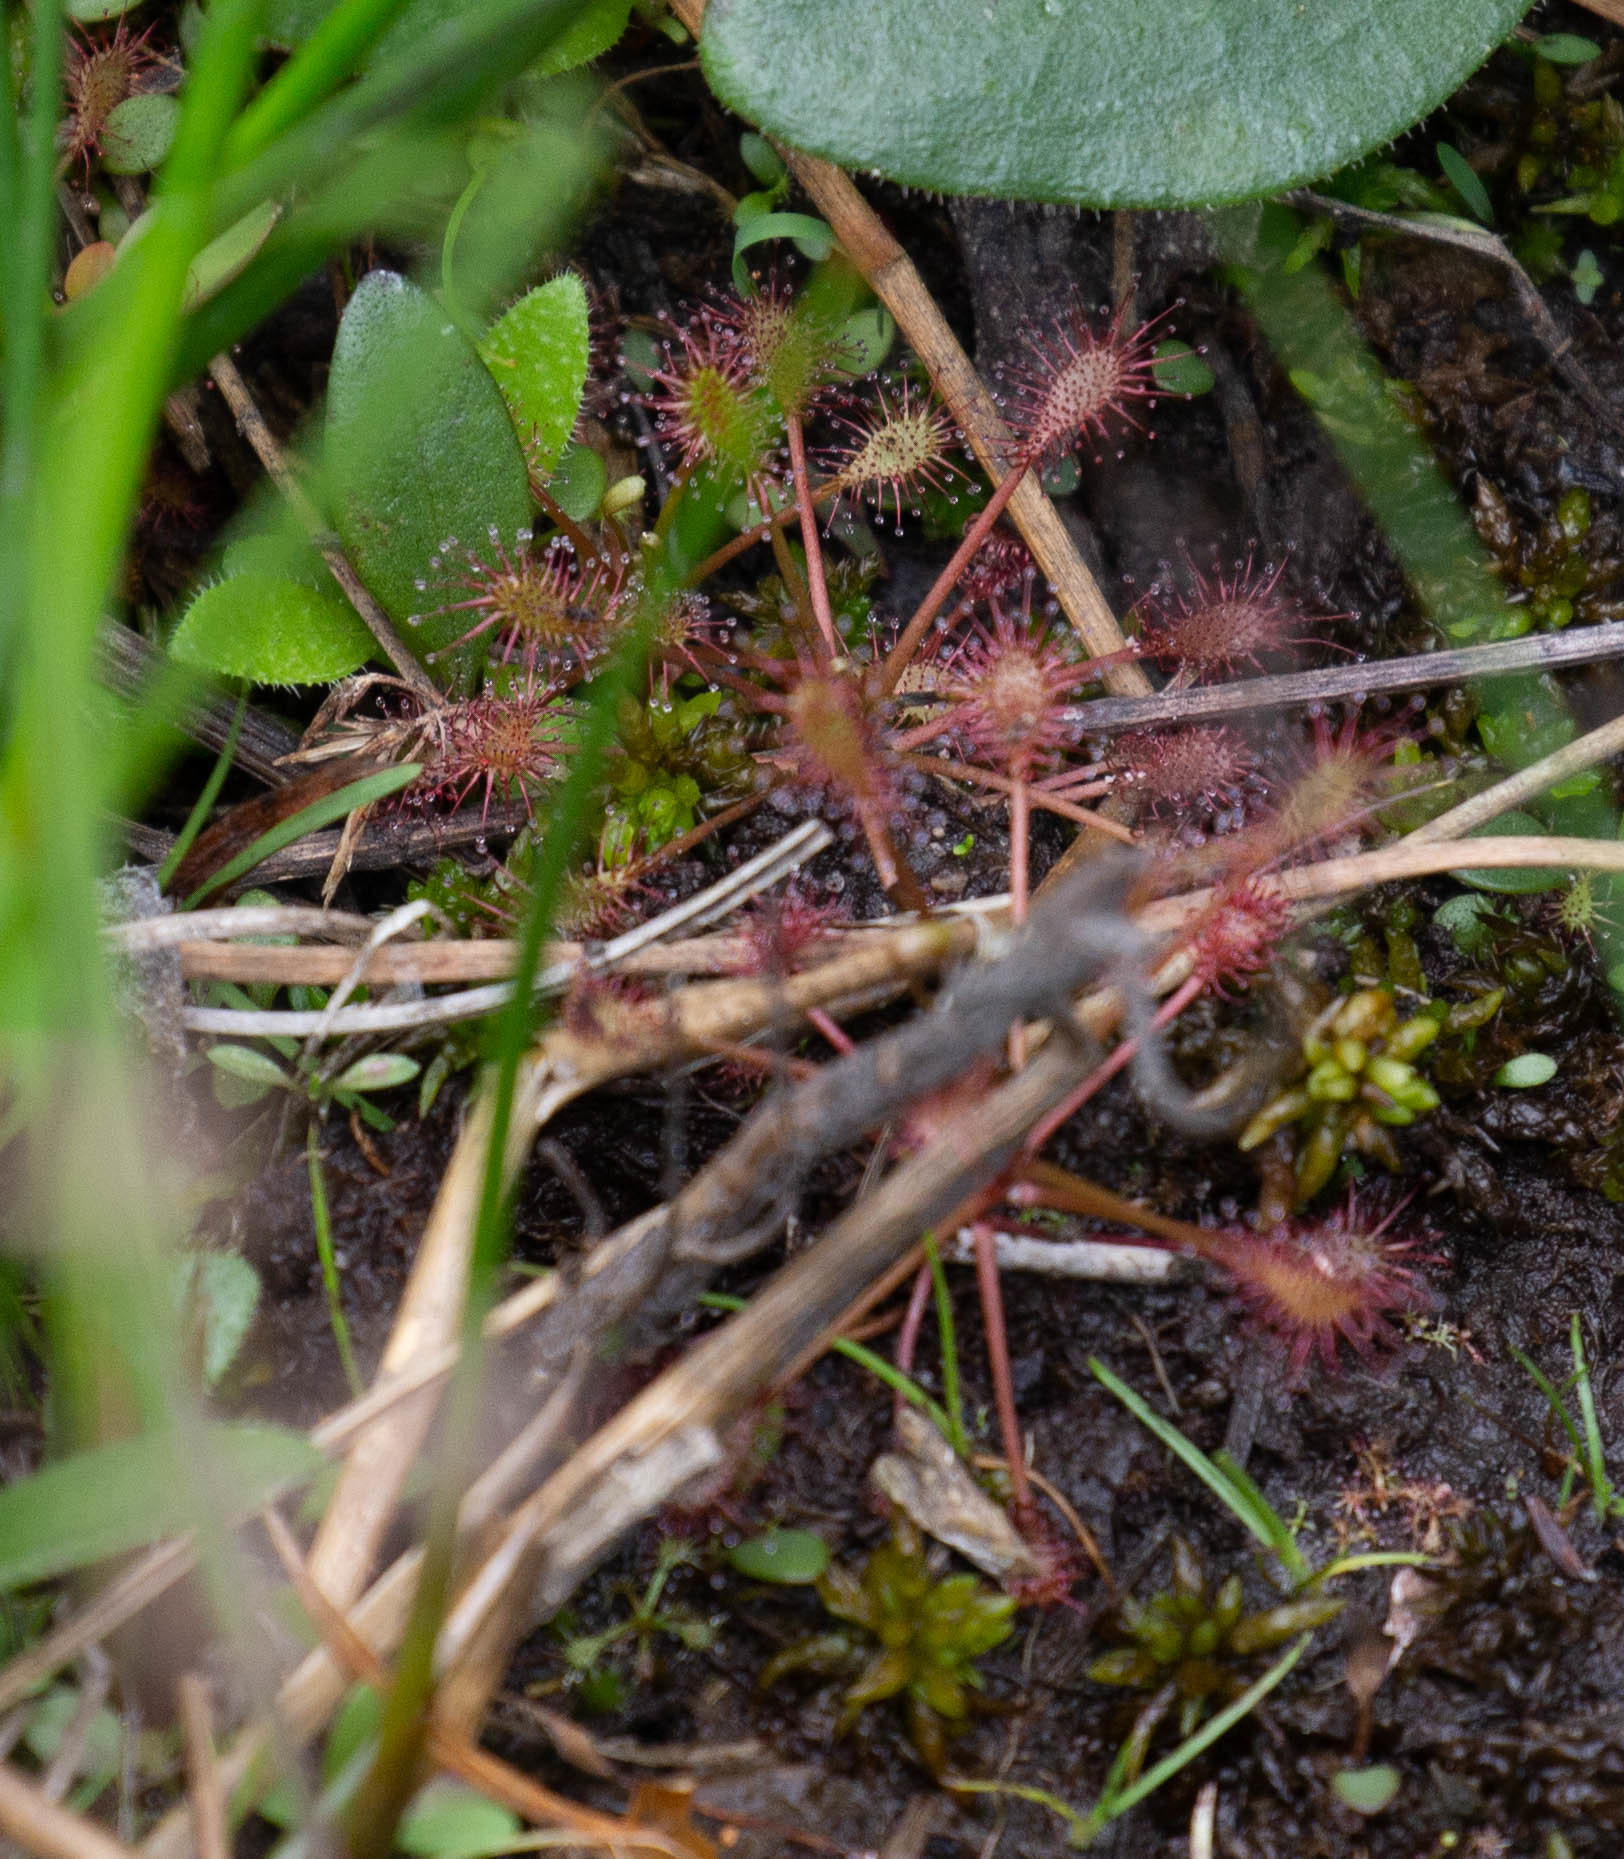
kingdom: Plantae
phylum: Tracheophyta
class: Magnoliopsida
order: Caryophyllales
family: Droseraceae
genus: Drosera
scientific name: Drosera intermedia
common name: Oblong-leaved sundew
